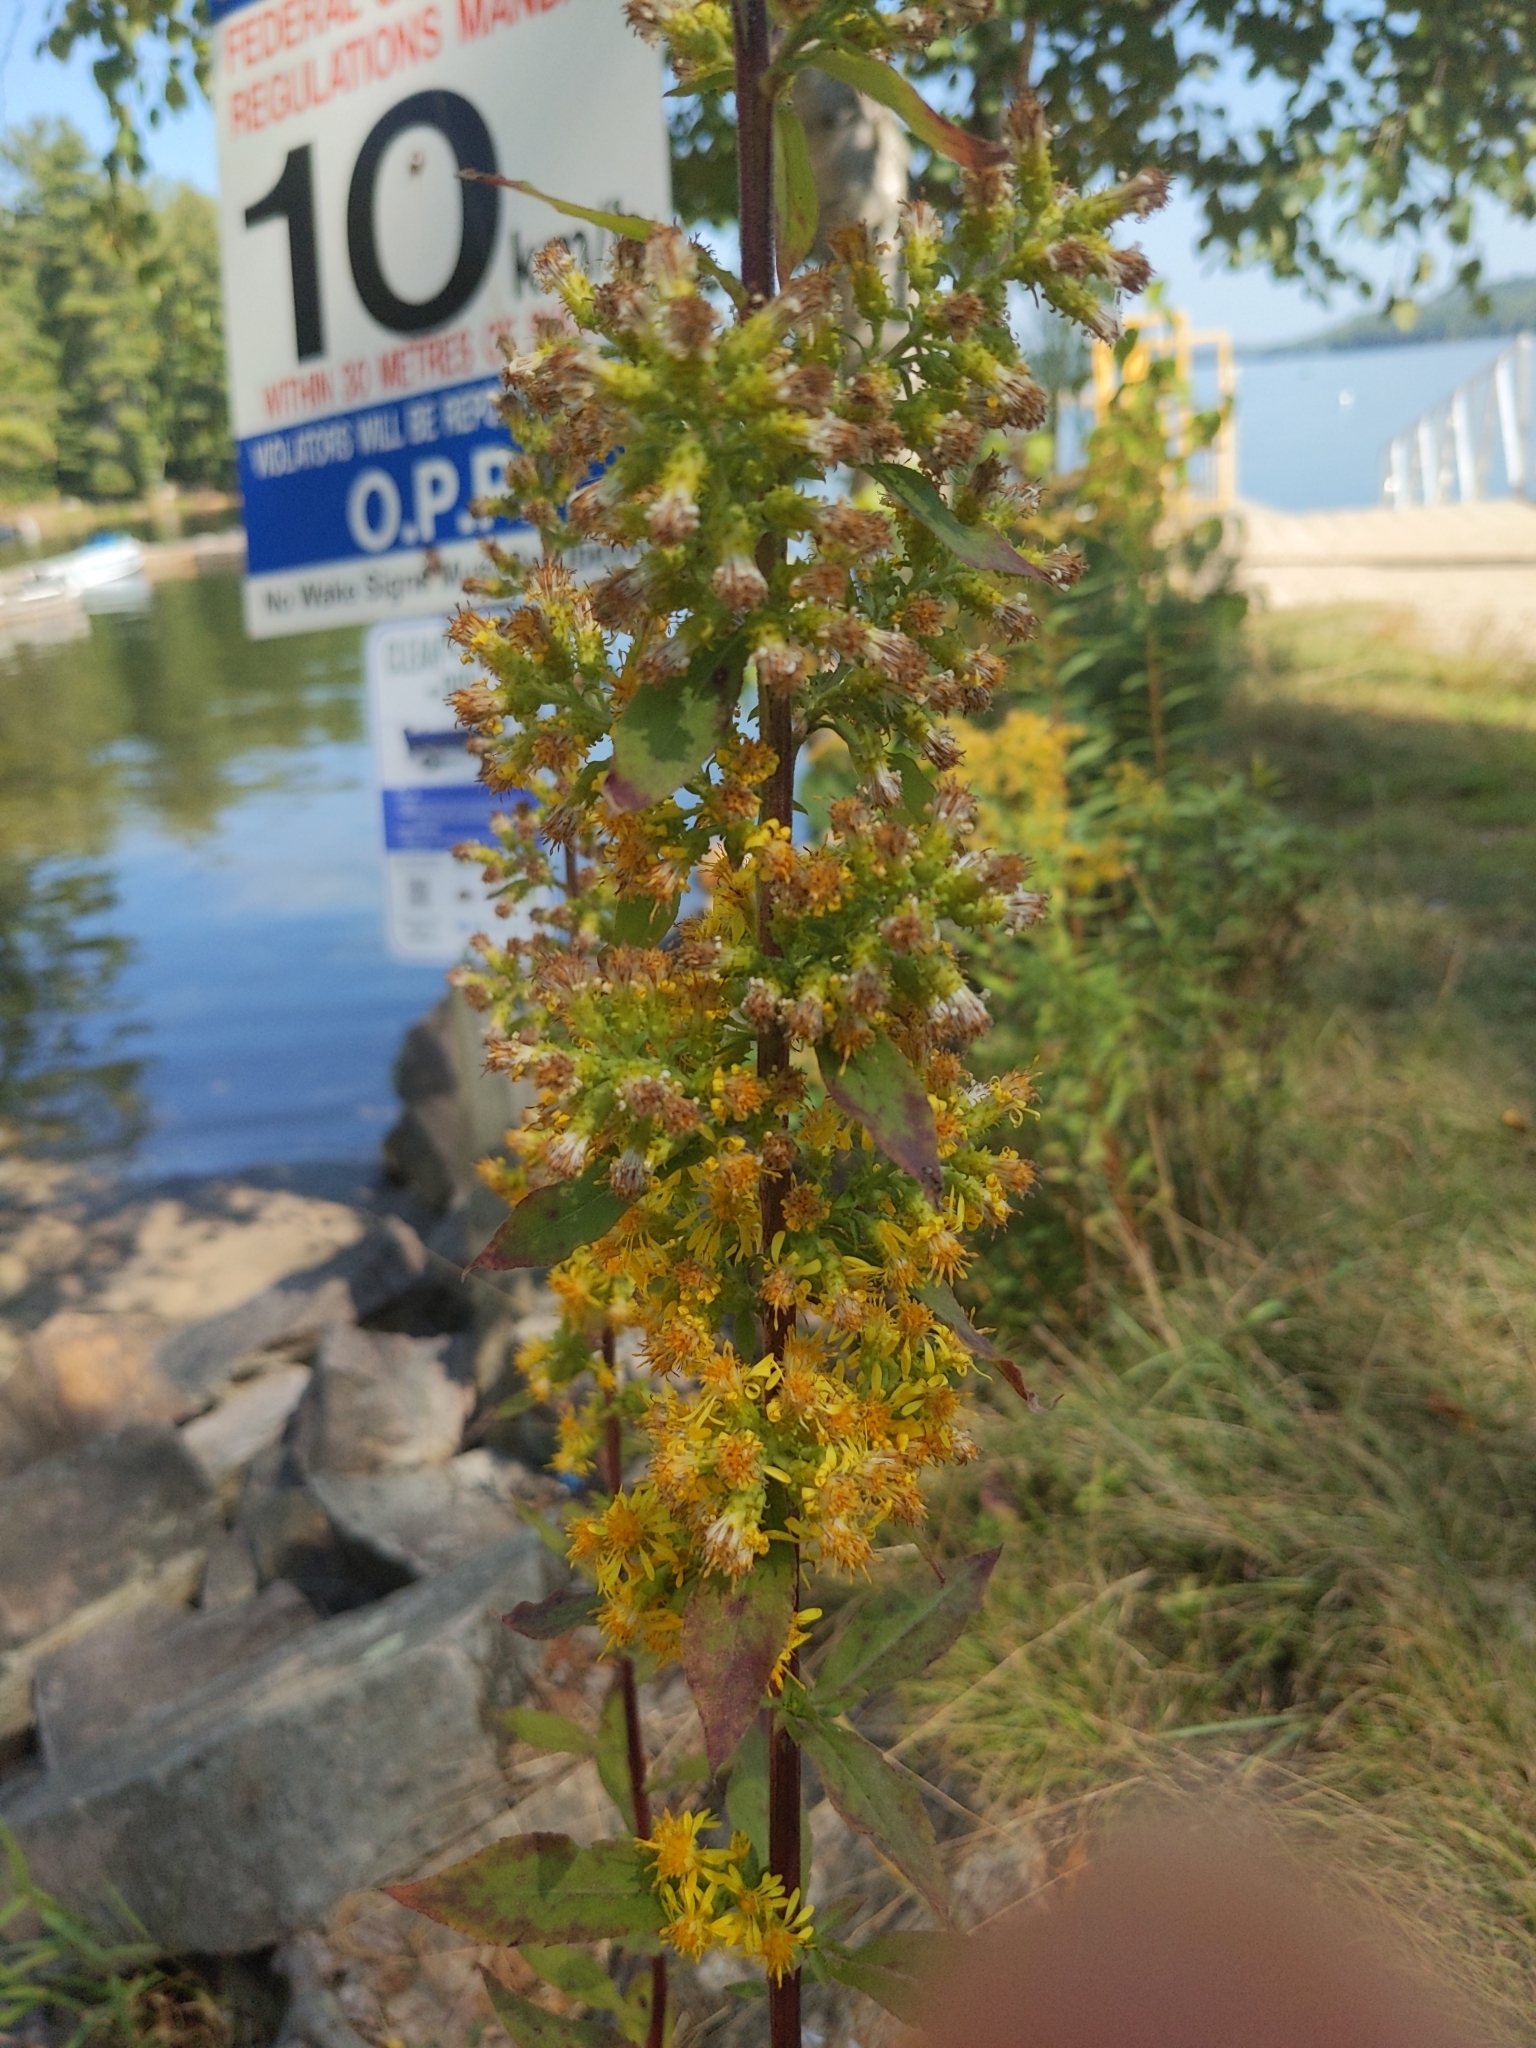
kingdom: Plantae
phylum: Tracheophyta
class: Magnoliopsida
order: Asterales
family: Asteraceae
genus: Solidago
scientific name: Solidago squarrosa
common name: Stout goldenrod
